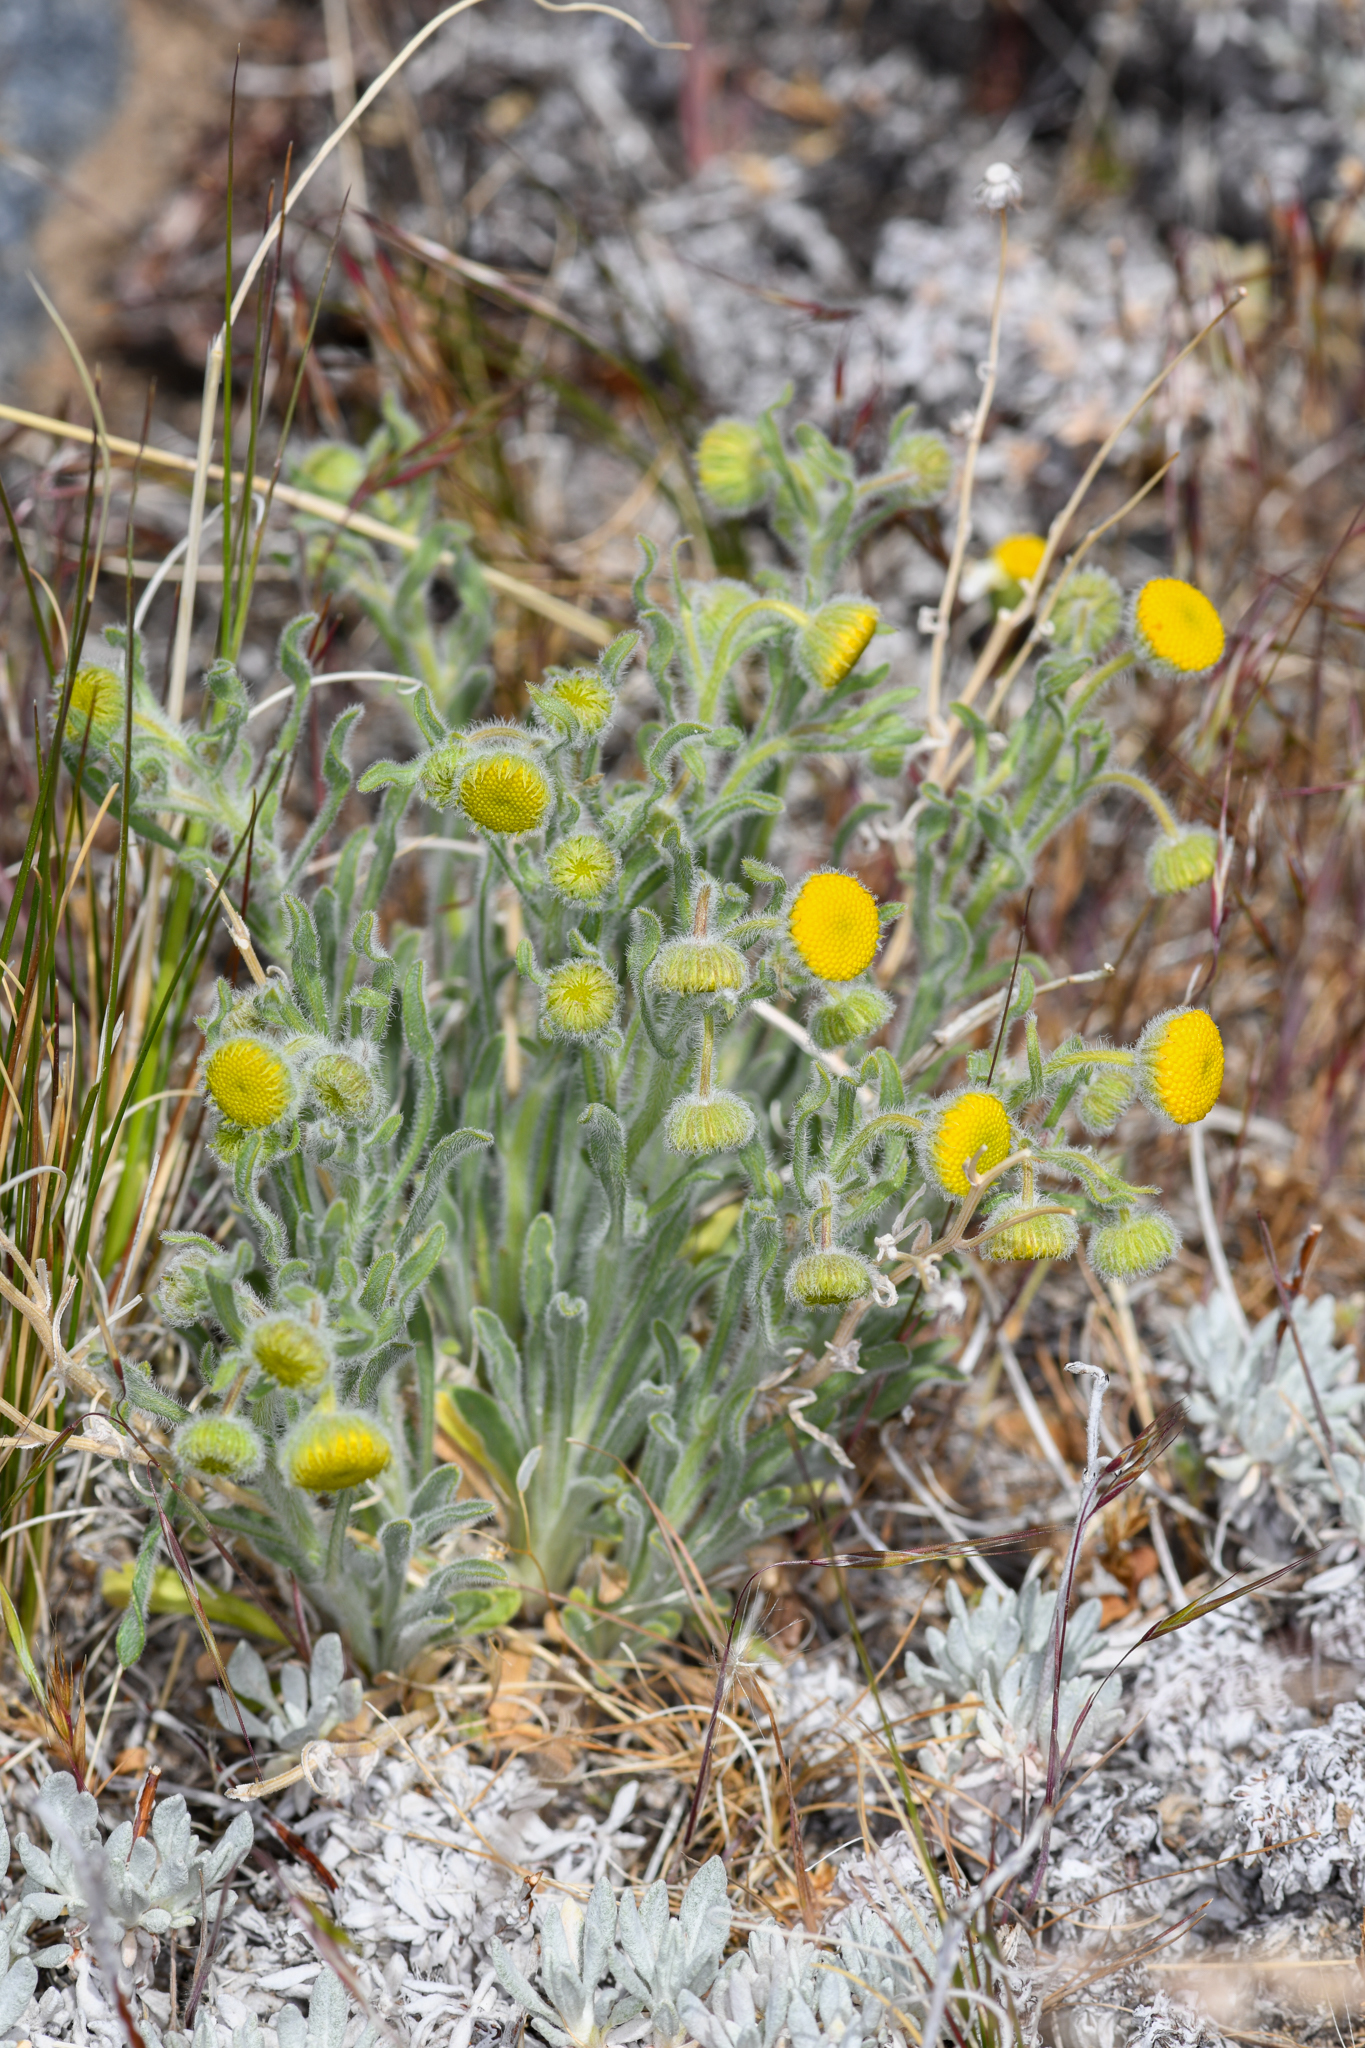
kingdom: Plantae
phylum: Tracheophyta
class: Magnoliopsida
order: Asterales
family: Asteraceae
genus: Erigeron
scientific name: Erigeron aphanactis
